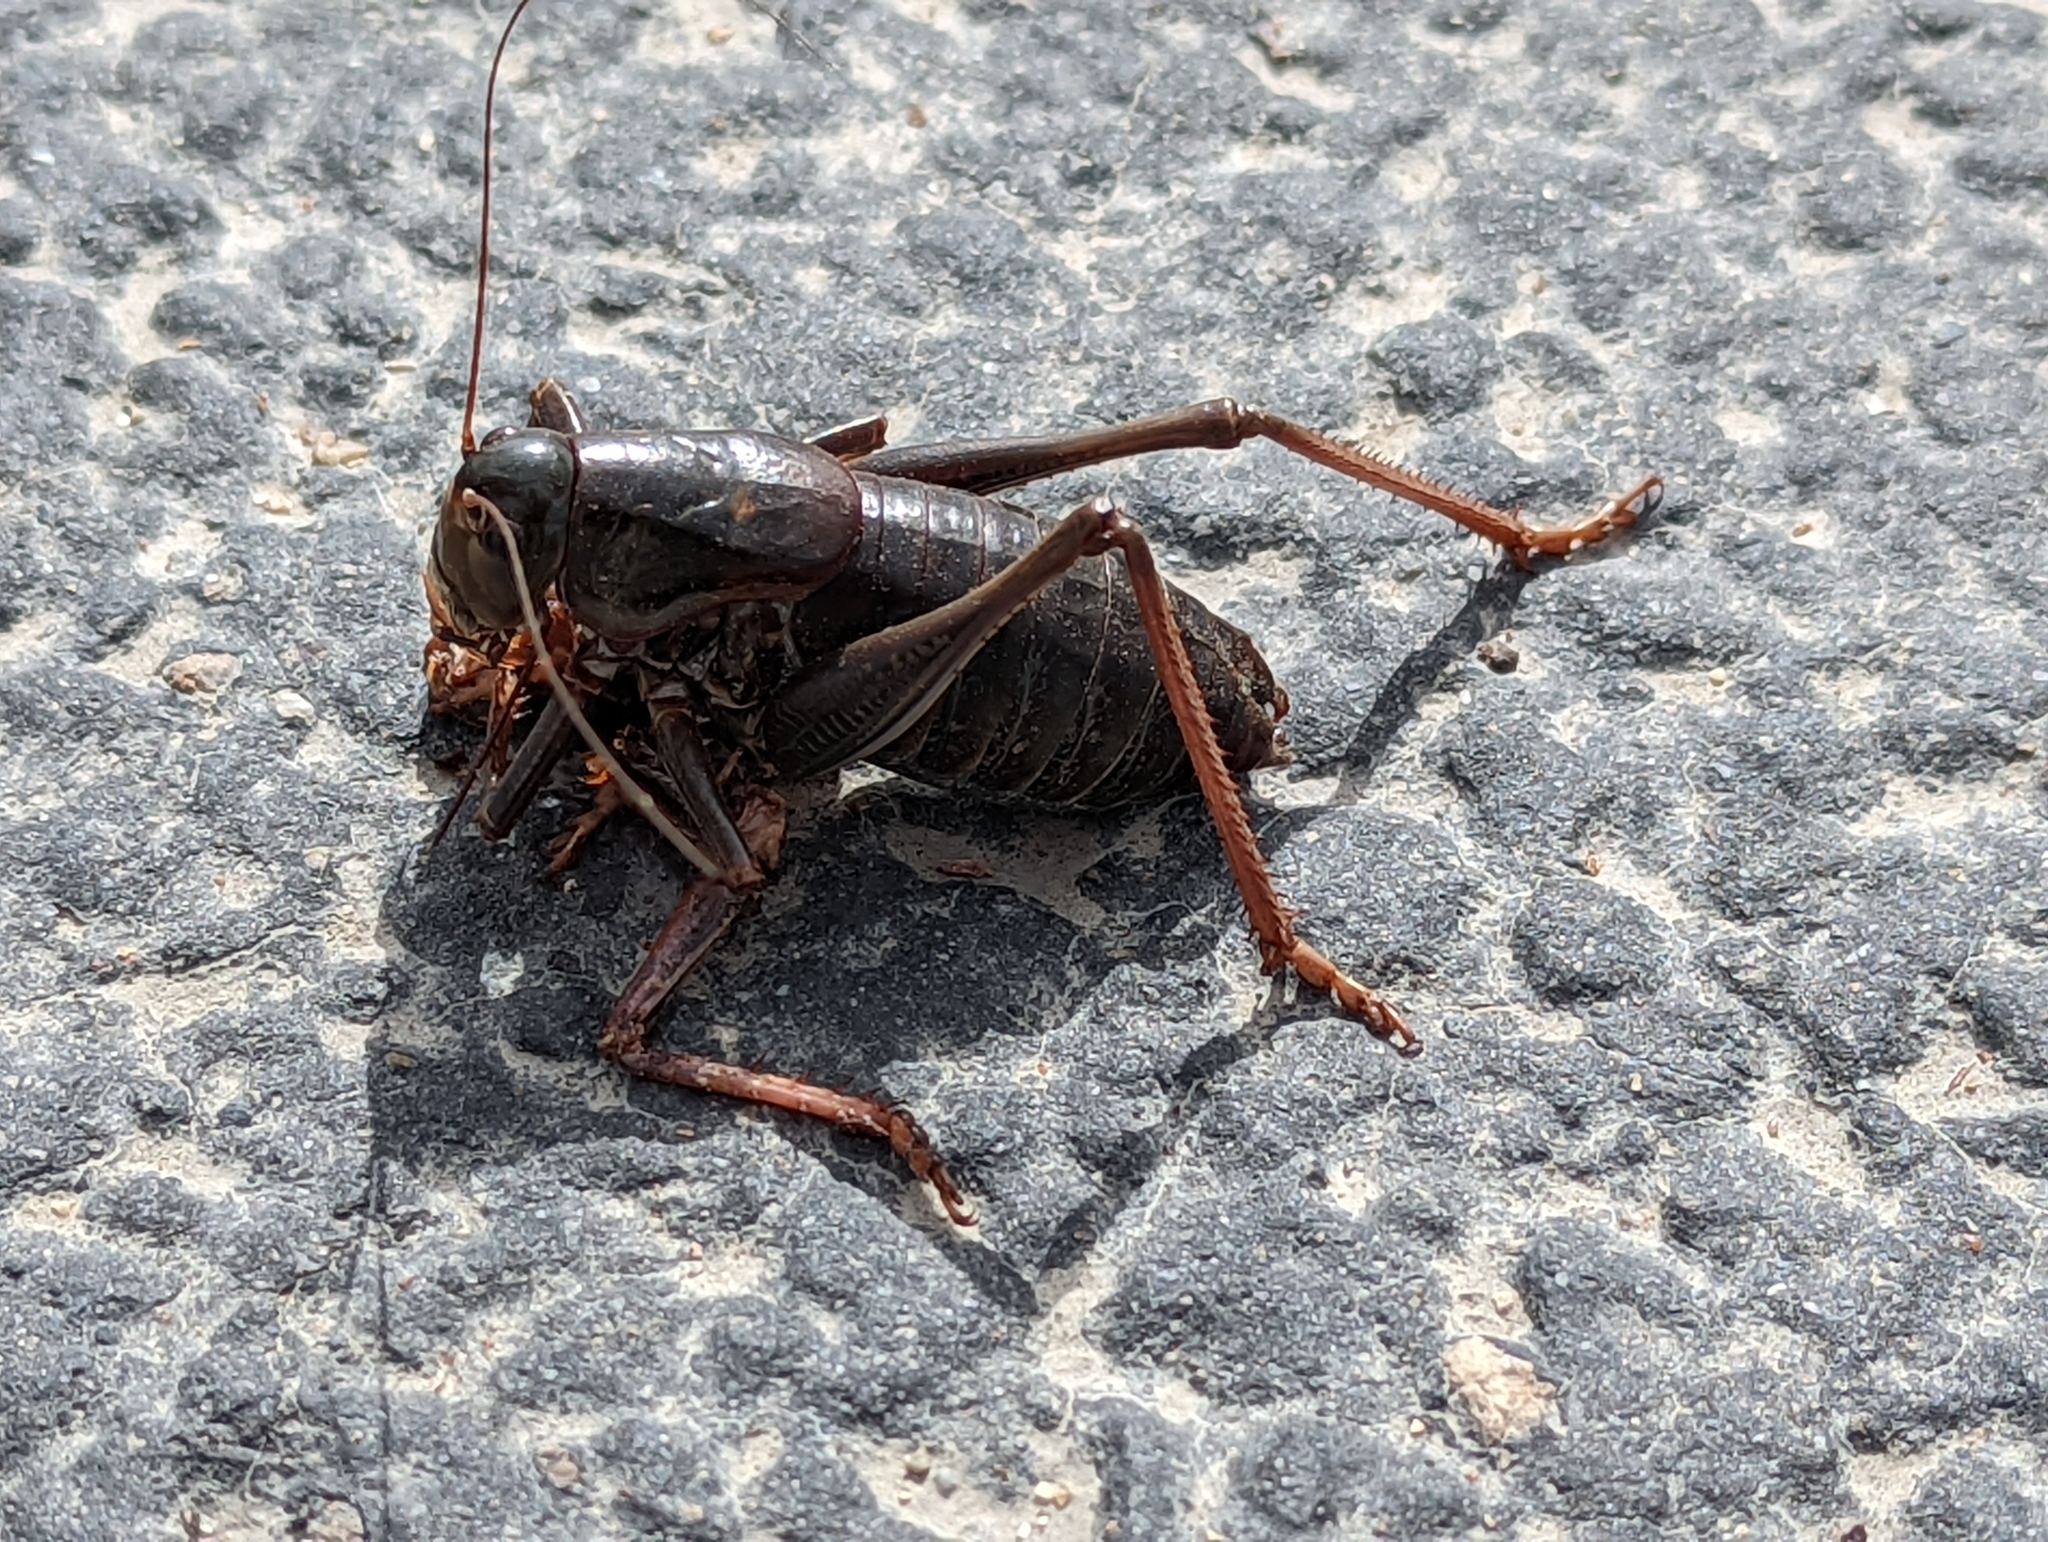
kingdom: Animalia
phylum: Arthropoda
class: Insecta
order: Orthoptera
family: Tettigoniidae
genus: Anabrus
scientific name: Anabrus simplex
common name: Mormon cricket
